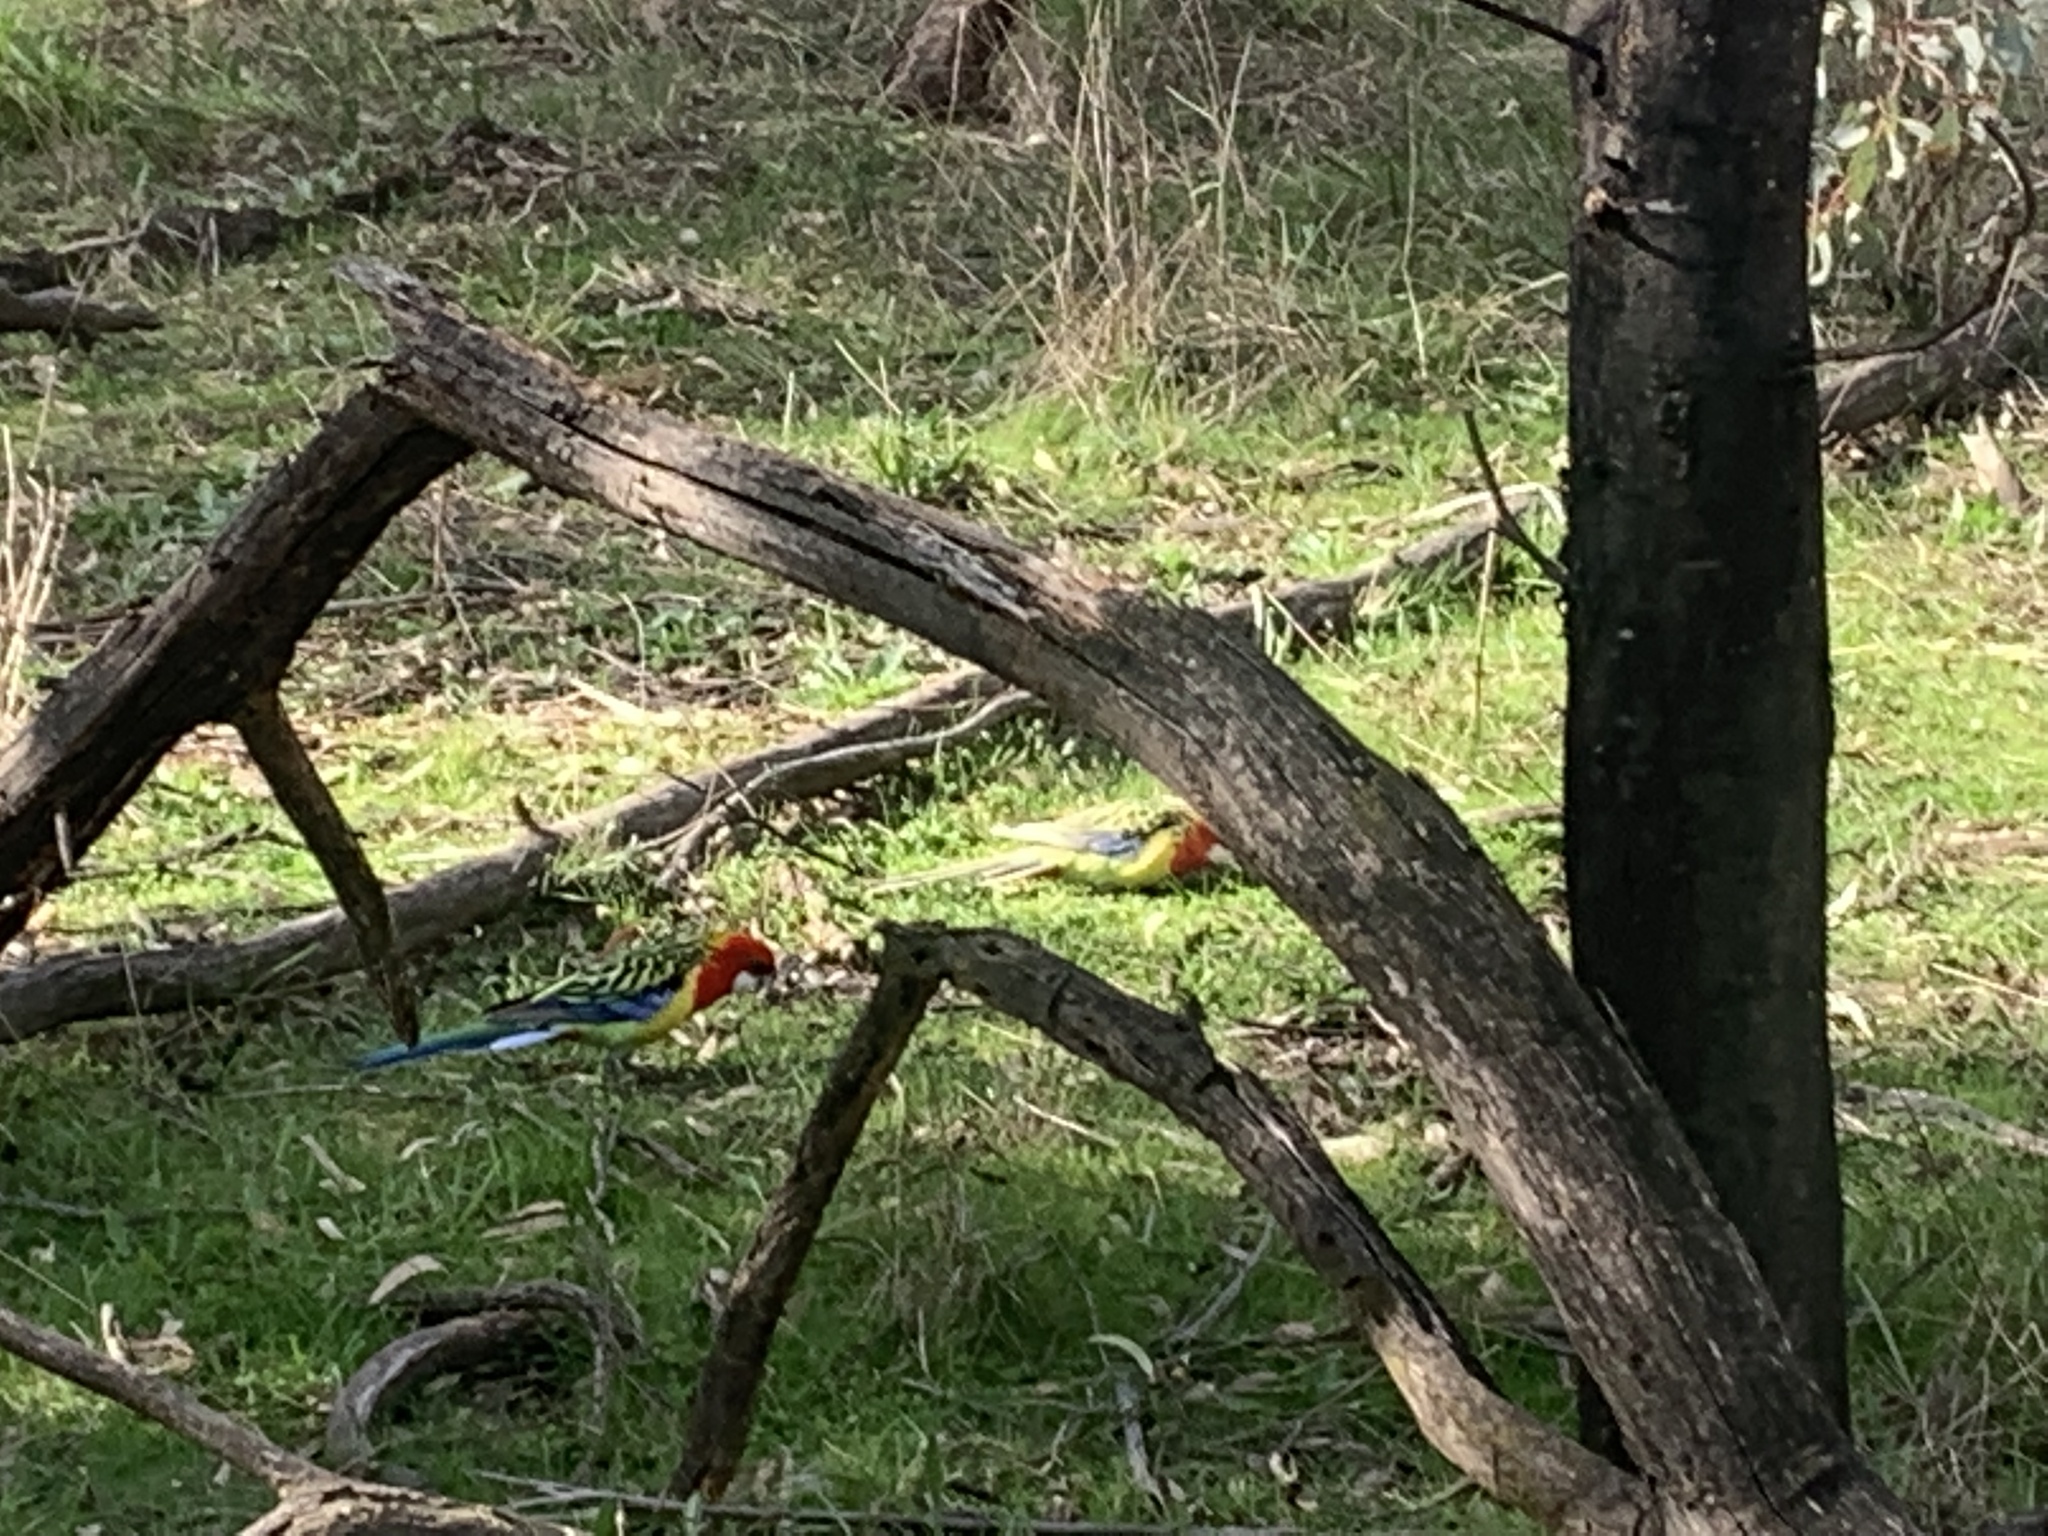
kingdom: Animalia
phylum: Chordata
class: Aves
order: Psittaciformes
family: Psittacidae
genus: Platycercus
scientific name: Platycercus eximius
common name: Eastern rosella
